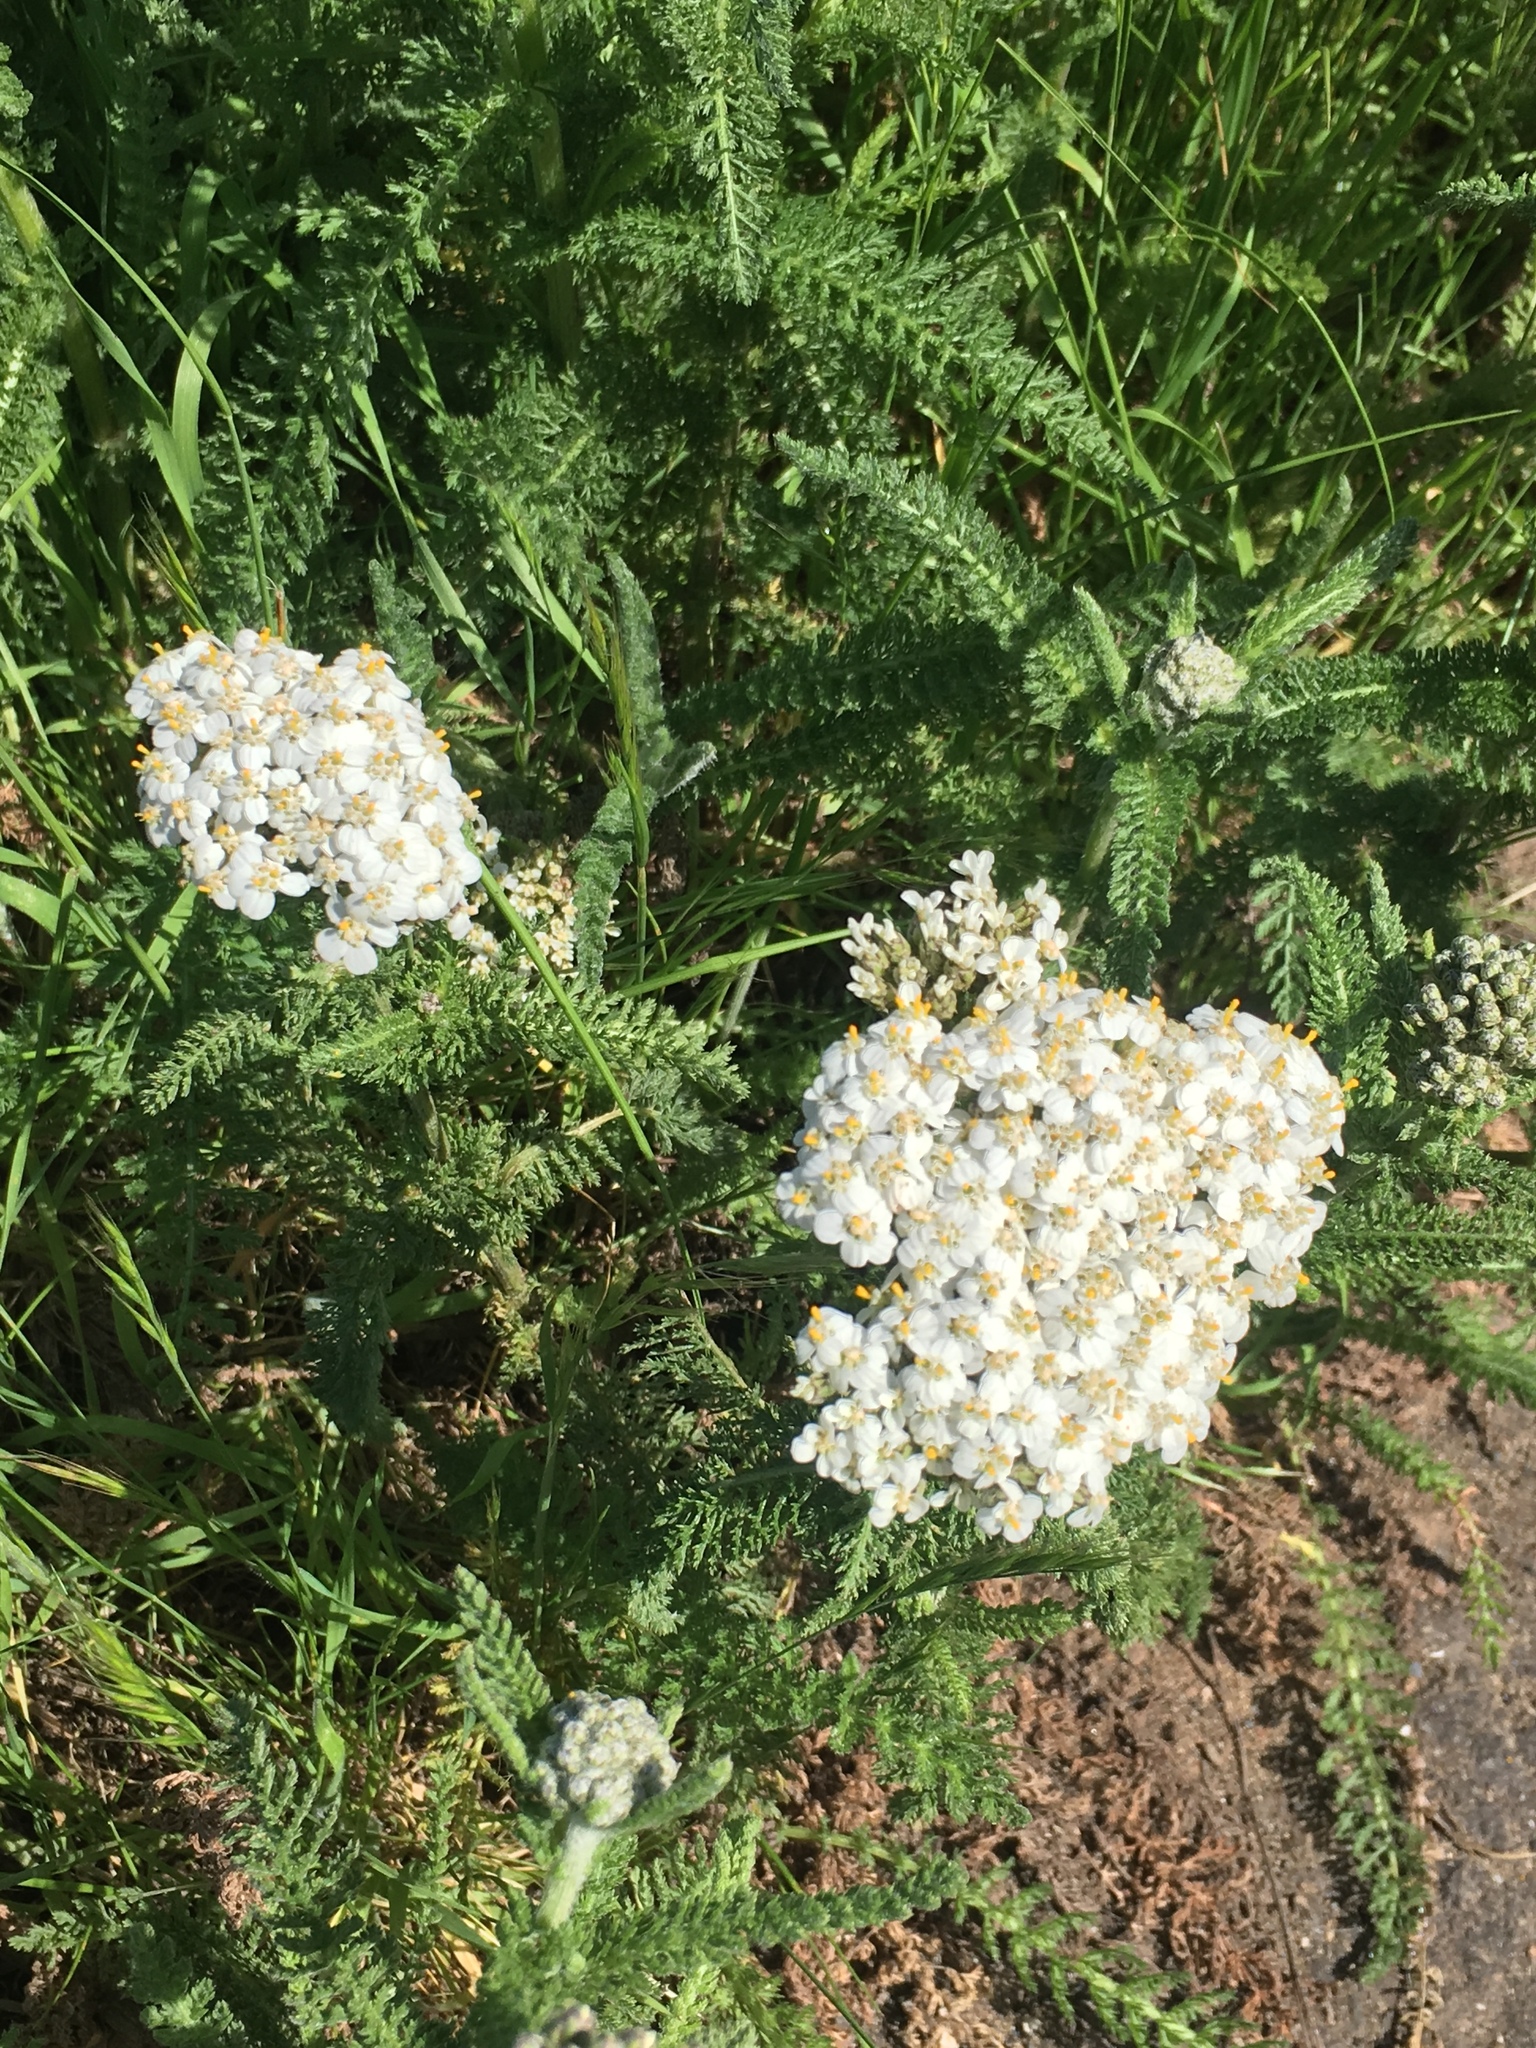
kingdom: Plantae
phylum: Tracheophyta
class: Magnoliopsida
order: Asterales
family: Asteraceae
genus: Achillea
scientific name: Achillea millefolium
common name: Yarrow
